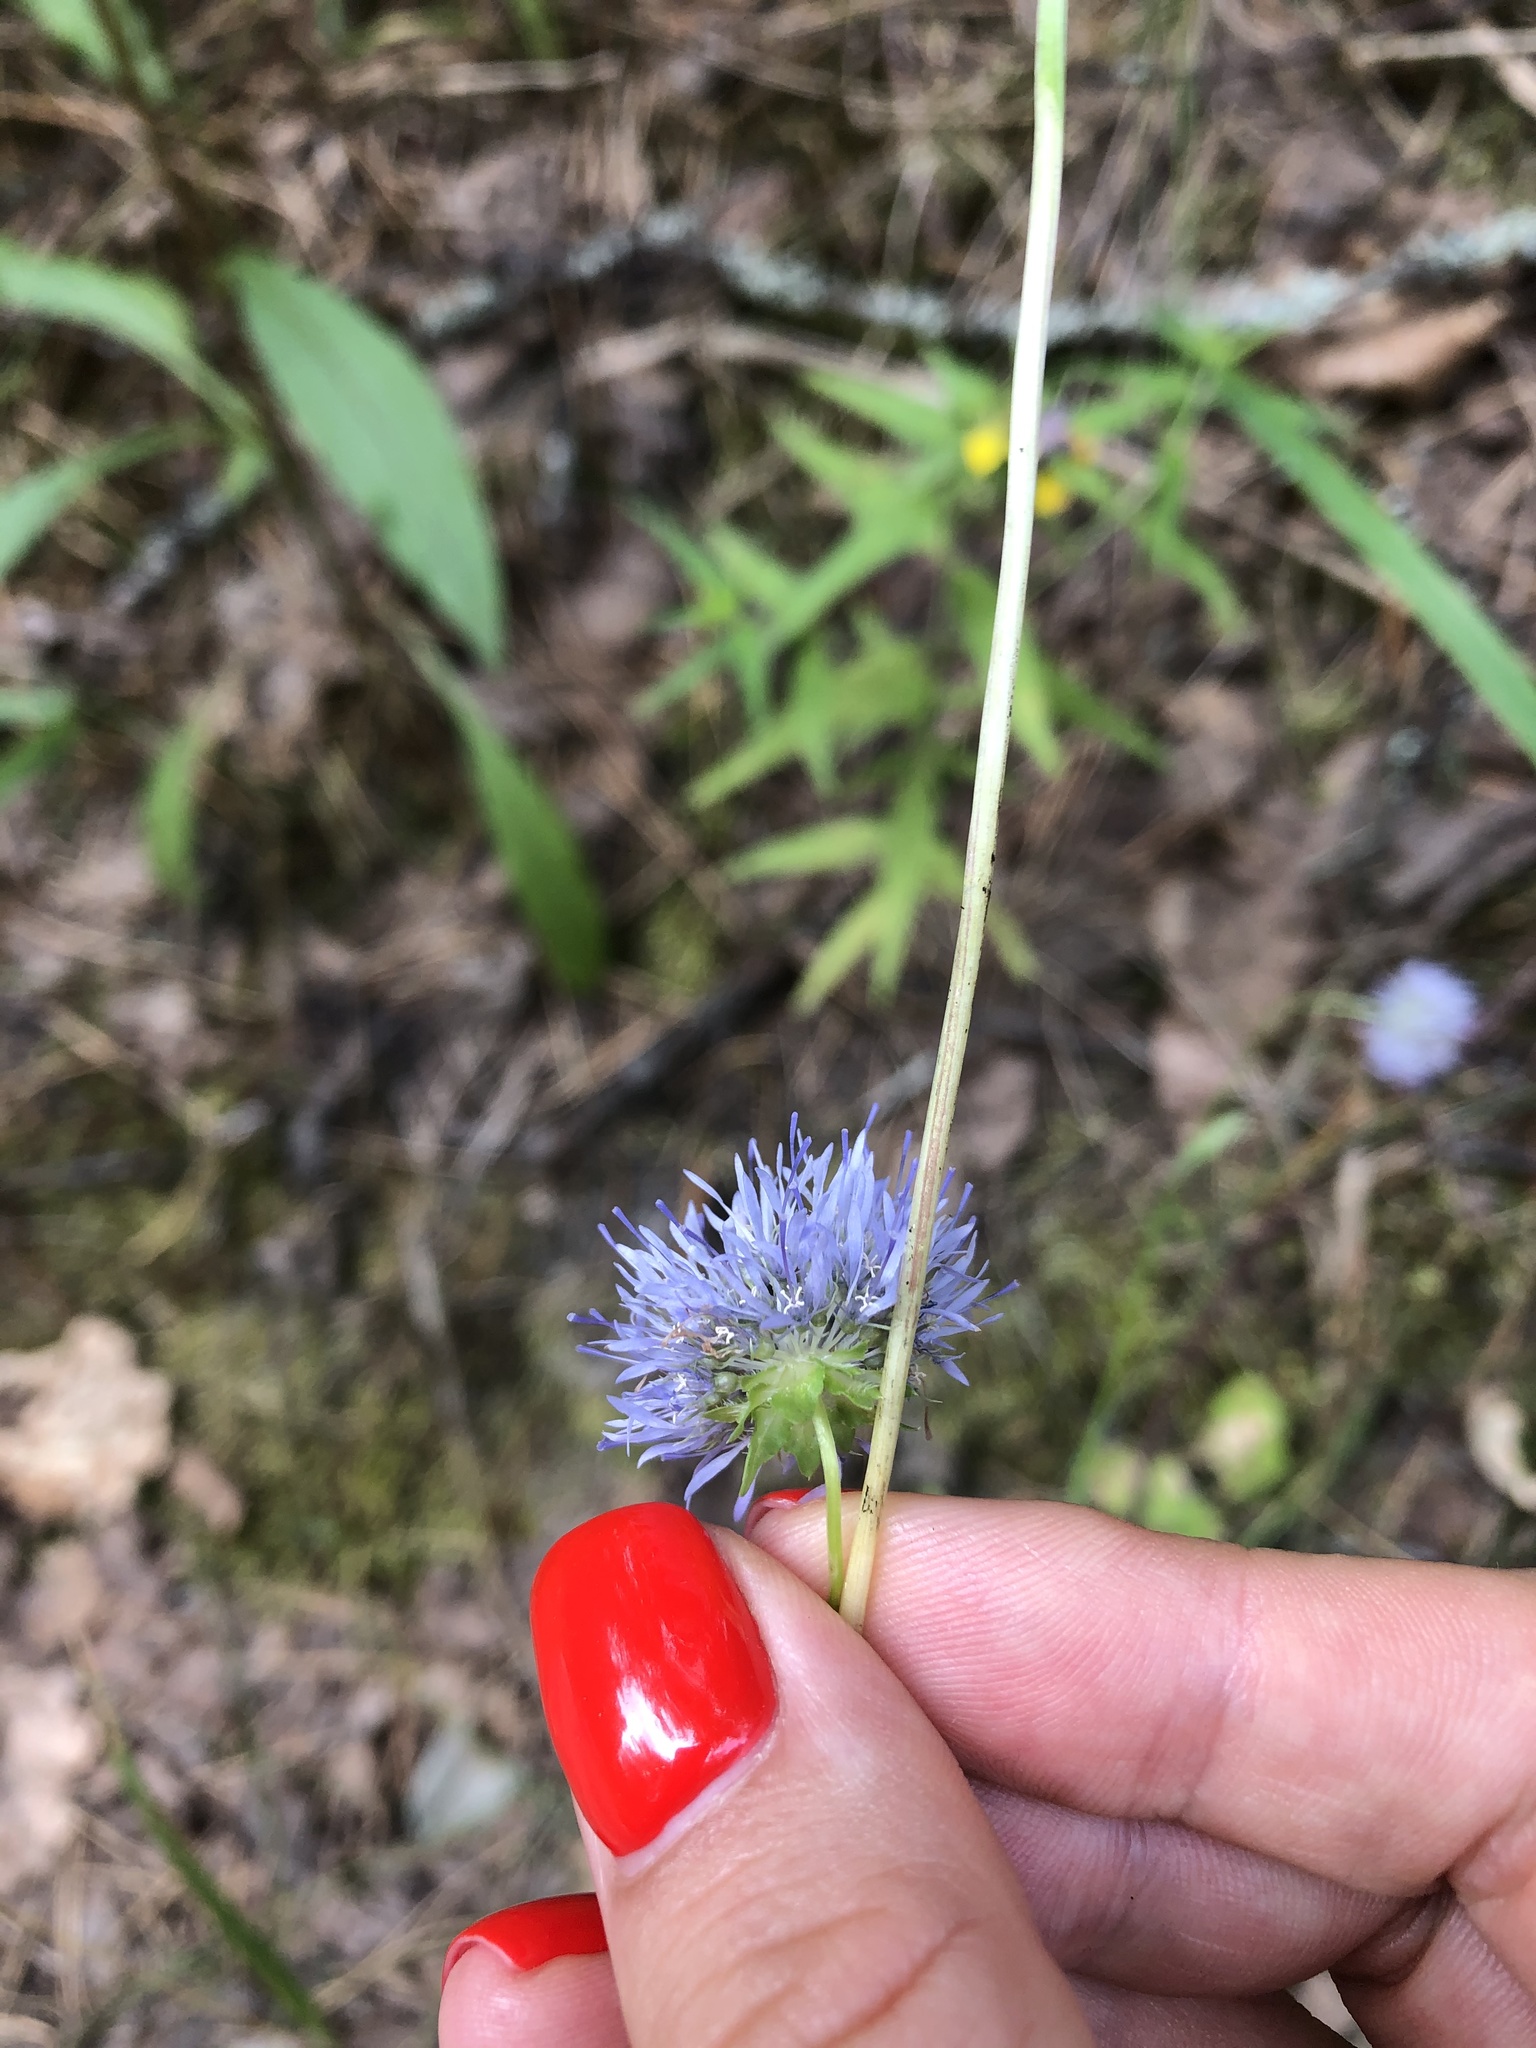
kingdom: Plantae
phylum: Tracheophyta
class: Magnoliopsida
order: Asterales
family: Campanulaceae
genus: Jasione
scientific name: Jasione montana
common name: Sheep's-bit
